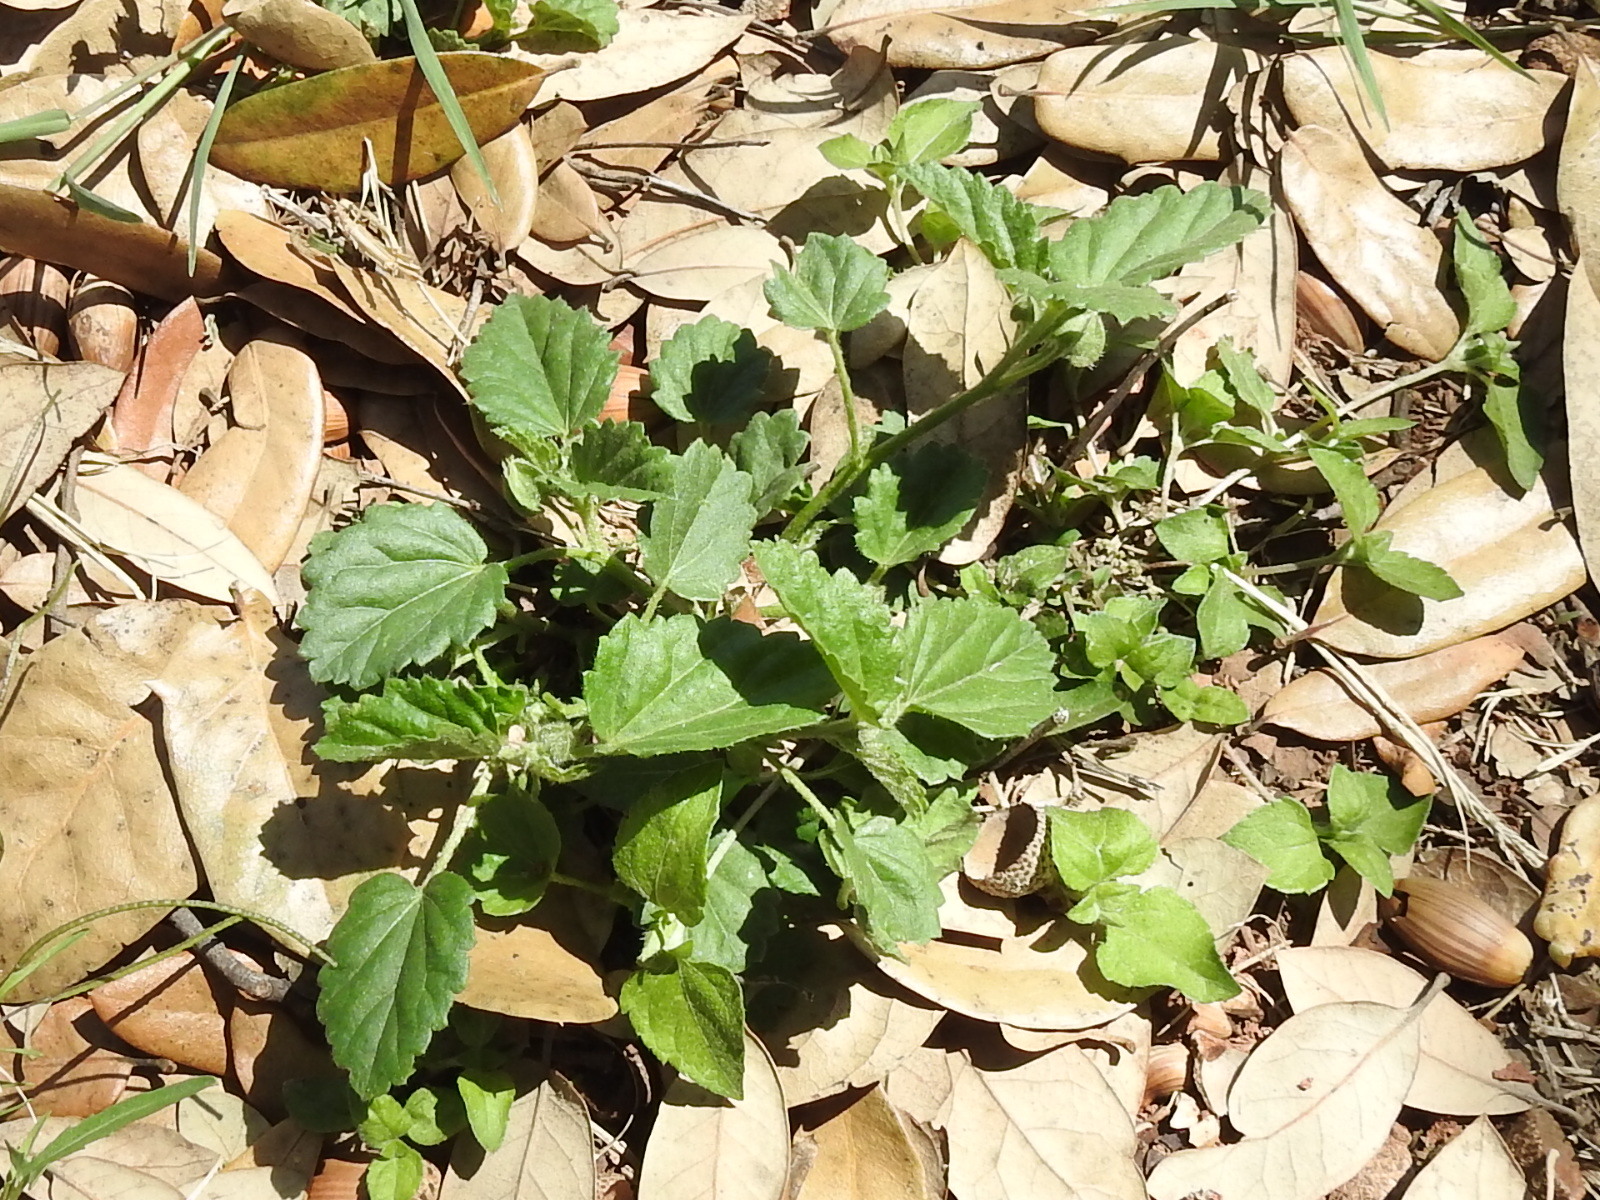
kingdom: Plantae
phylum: Tracheophyta
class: Magnoliopsida
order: Malvales
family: Malvaceae
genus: Rhynchosida
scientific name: Rhynchosida physocalyx
